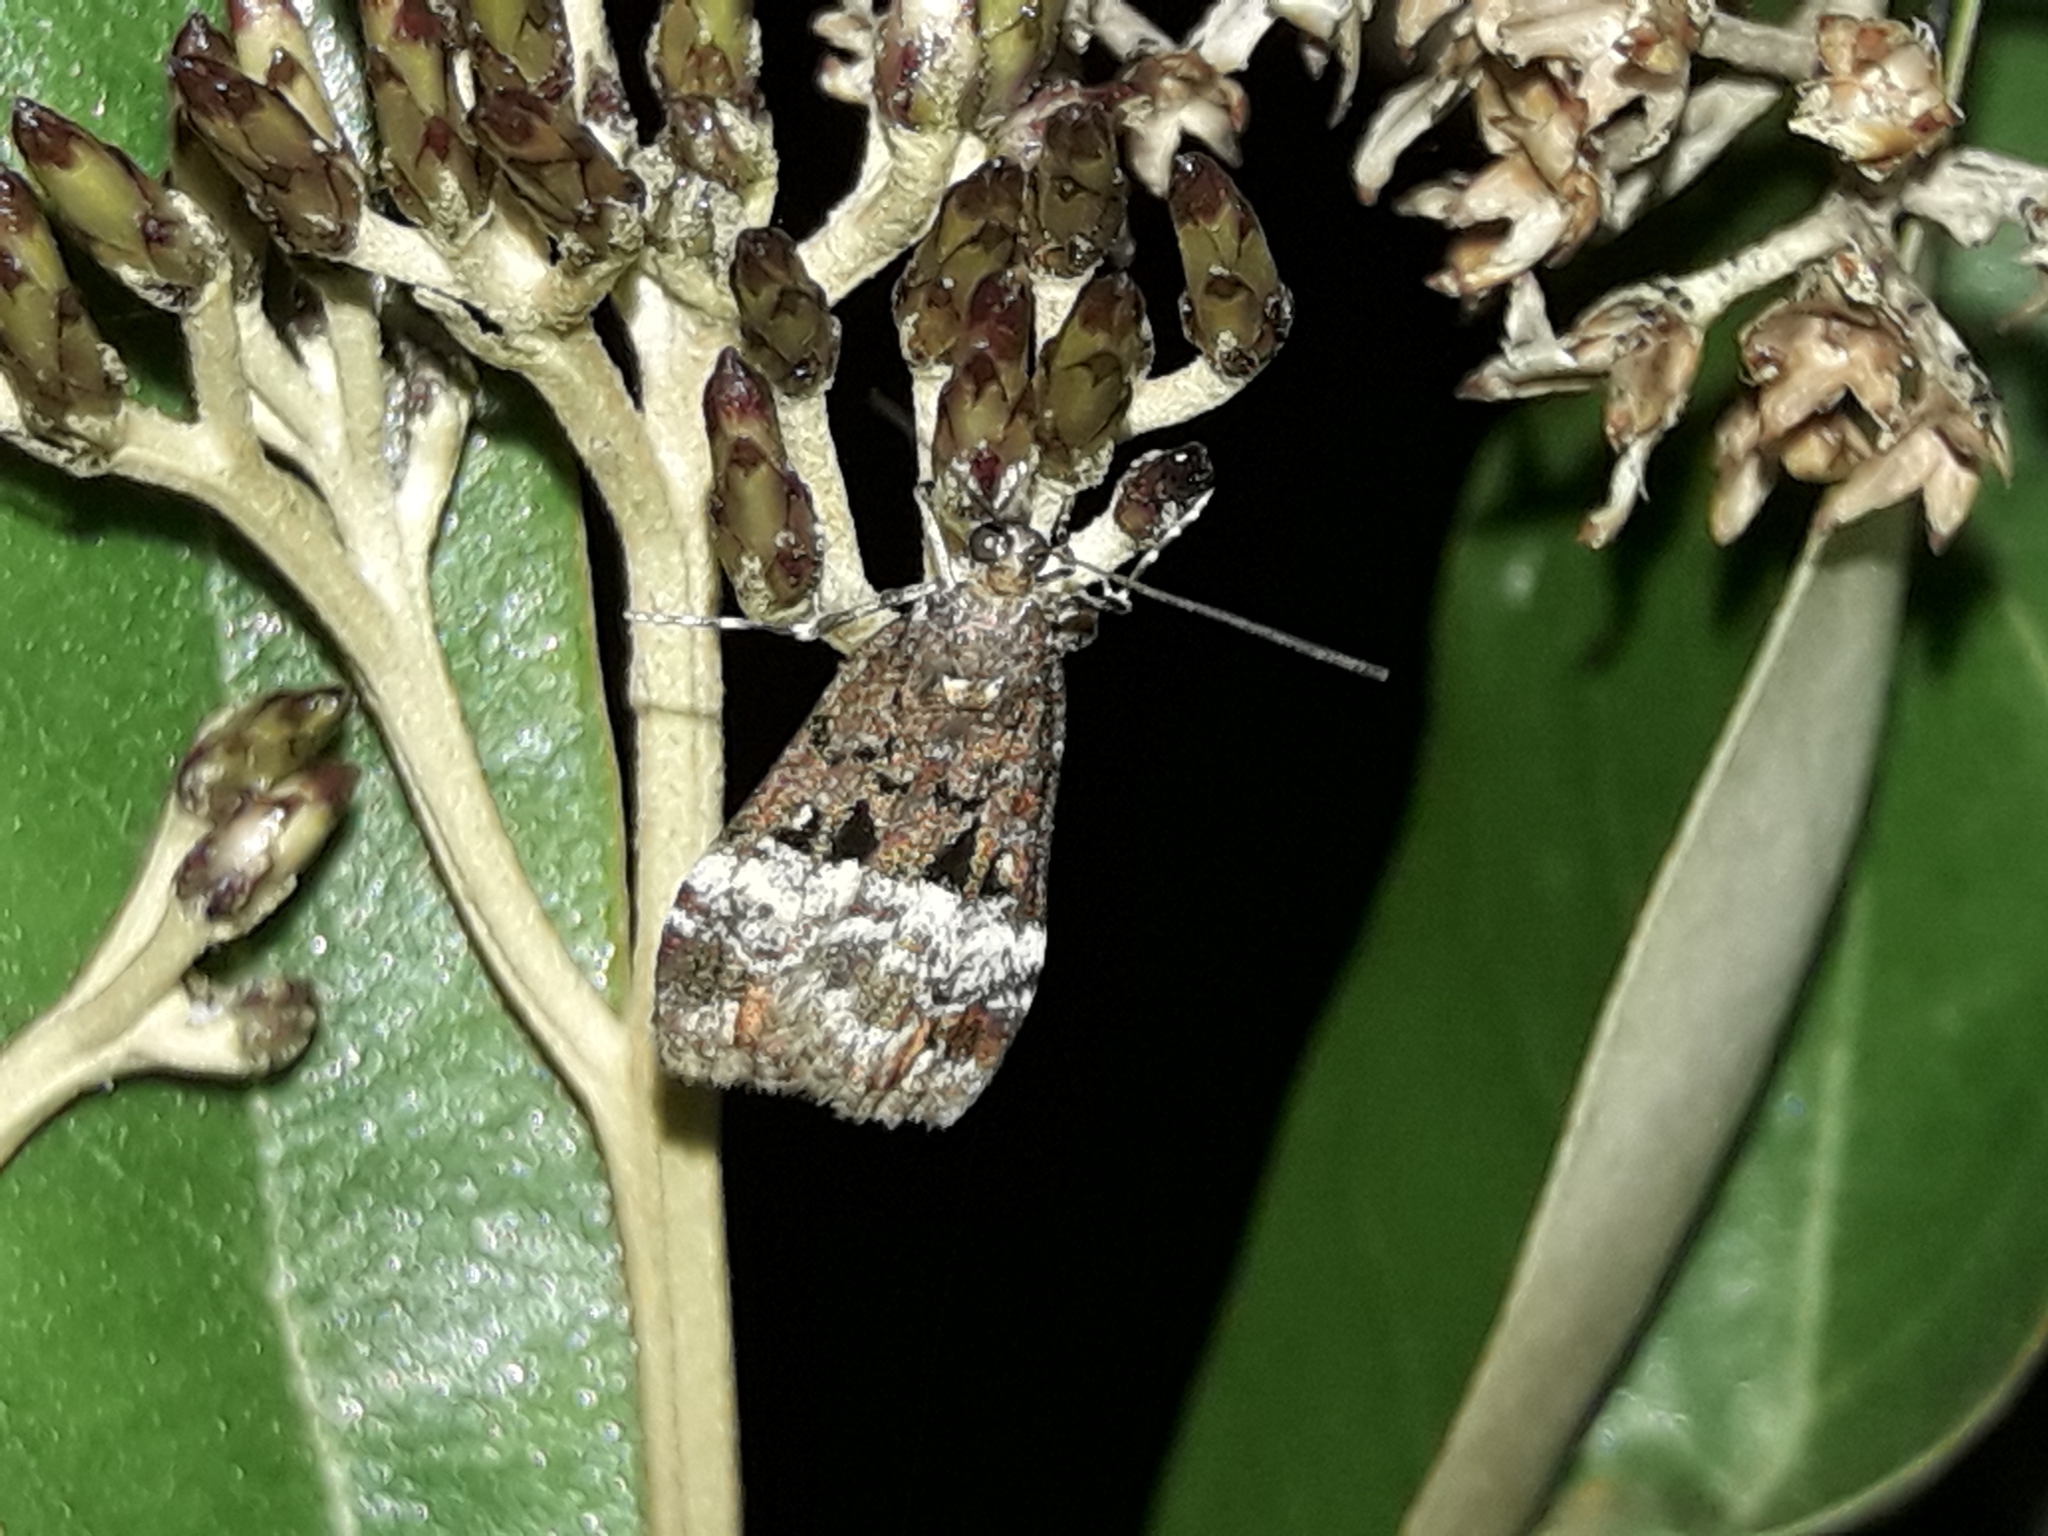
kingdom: Animalia
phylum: Arthropoda
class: Insecta
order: Lepidoptera
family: Crambidae
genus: Scoparia
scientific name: Scoparia minusculalis
